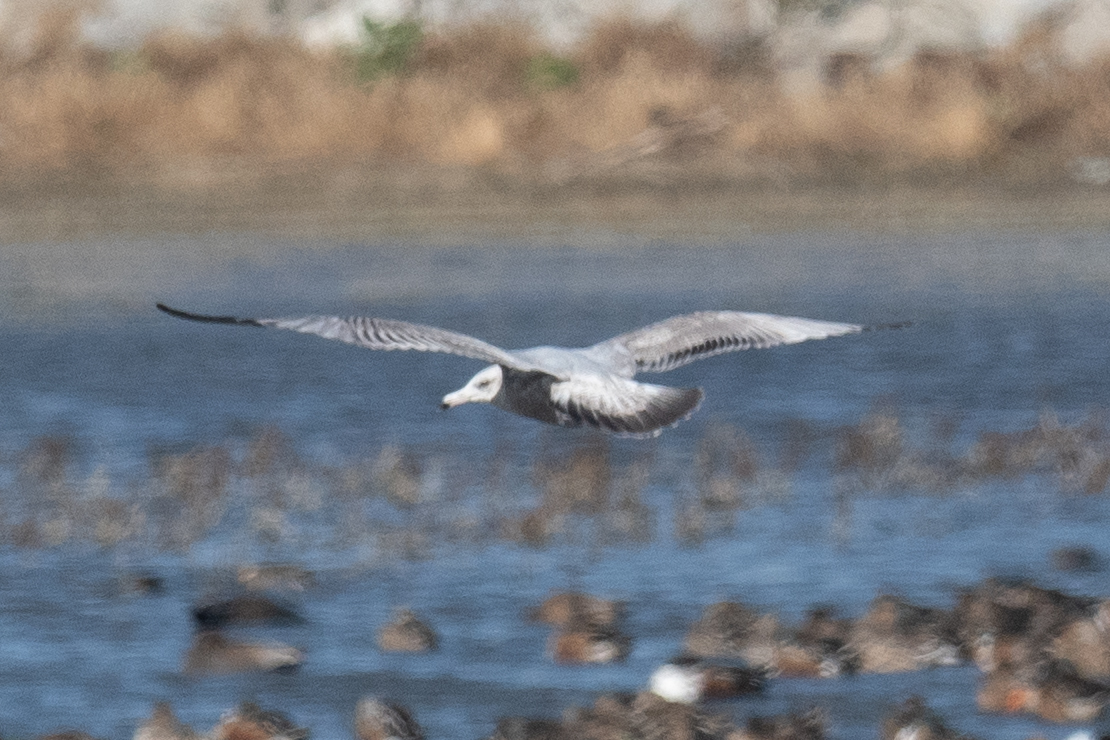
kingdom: Animalia
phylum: Chordata
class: Aves
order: Charadriiformes
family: Laridae
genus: Larus
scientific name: Larus argentatus
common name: Herring gull
